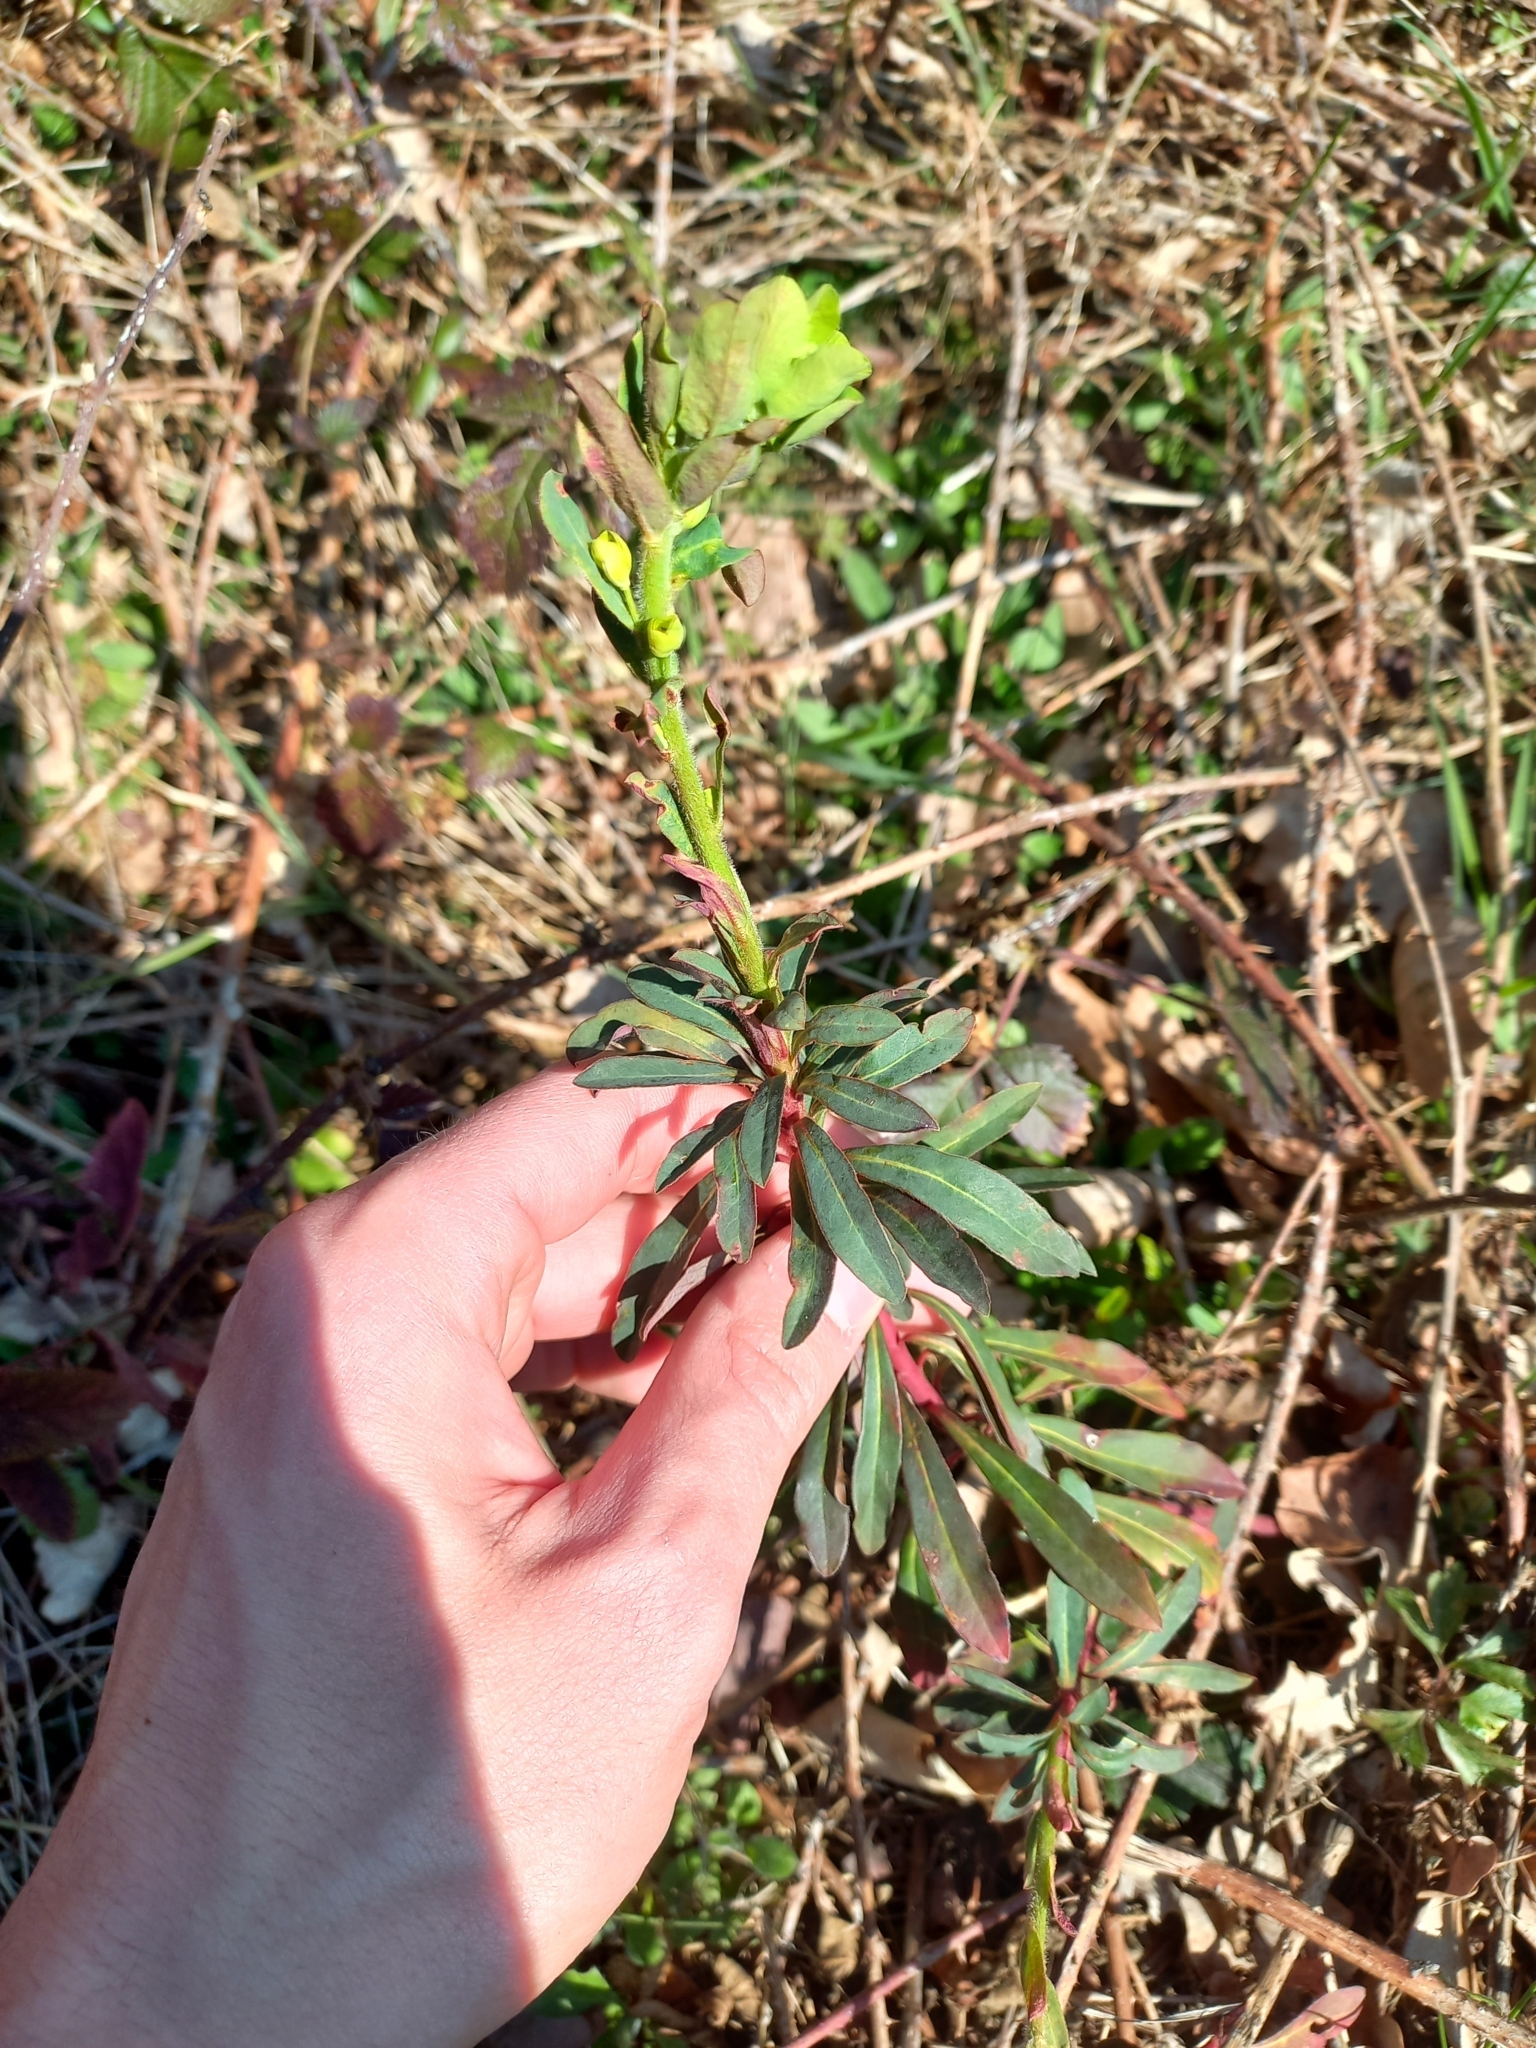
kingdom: Plantae
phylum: Tracheophyta
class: Magnoliopsida
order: Malpighiales
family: Euphorbiaceae
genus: Euphorbia
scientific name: Euphorbia amygdaloides
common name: Wood spurge
